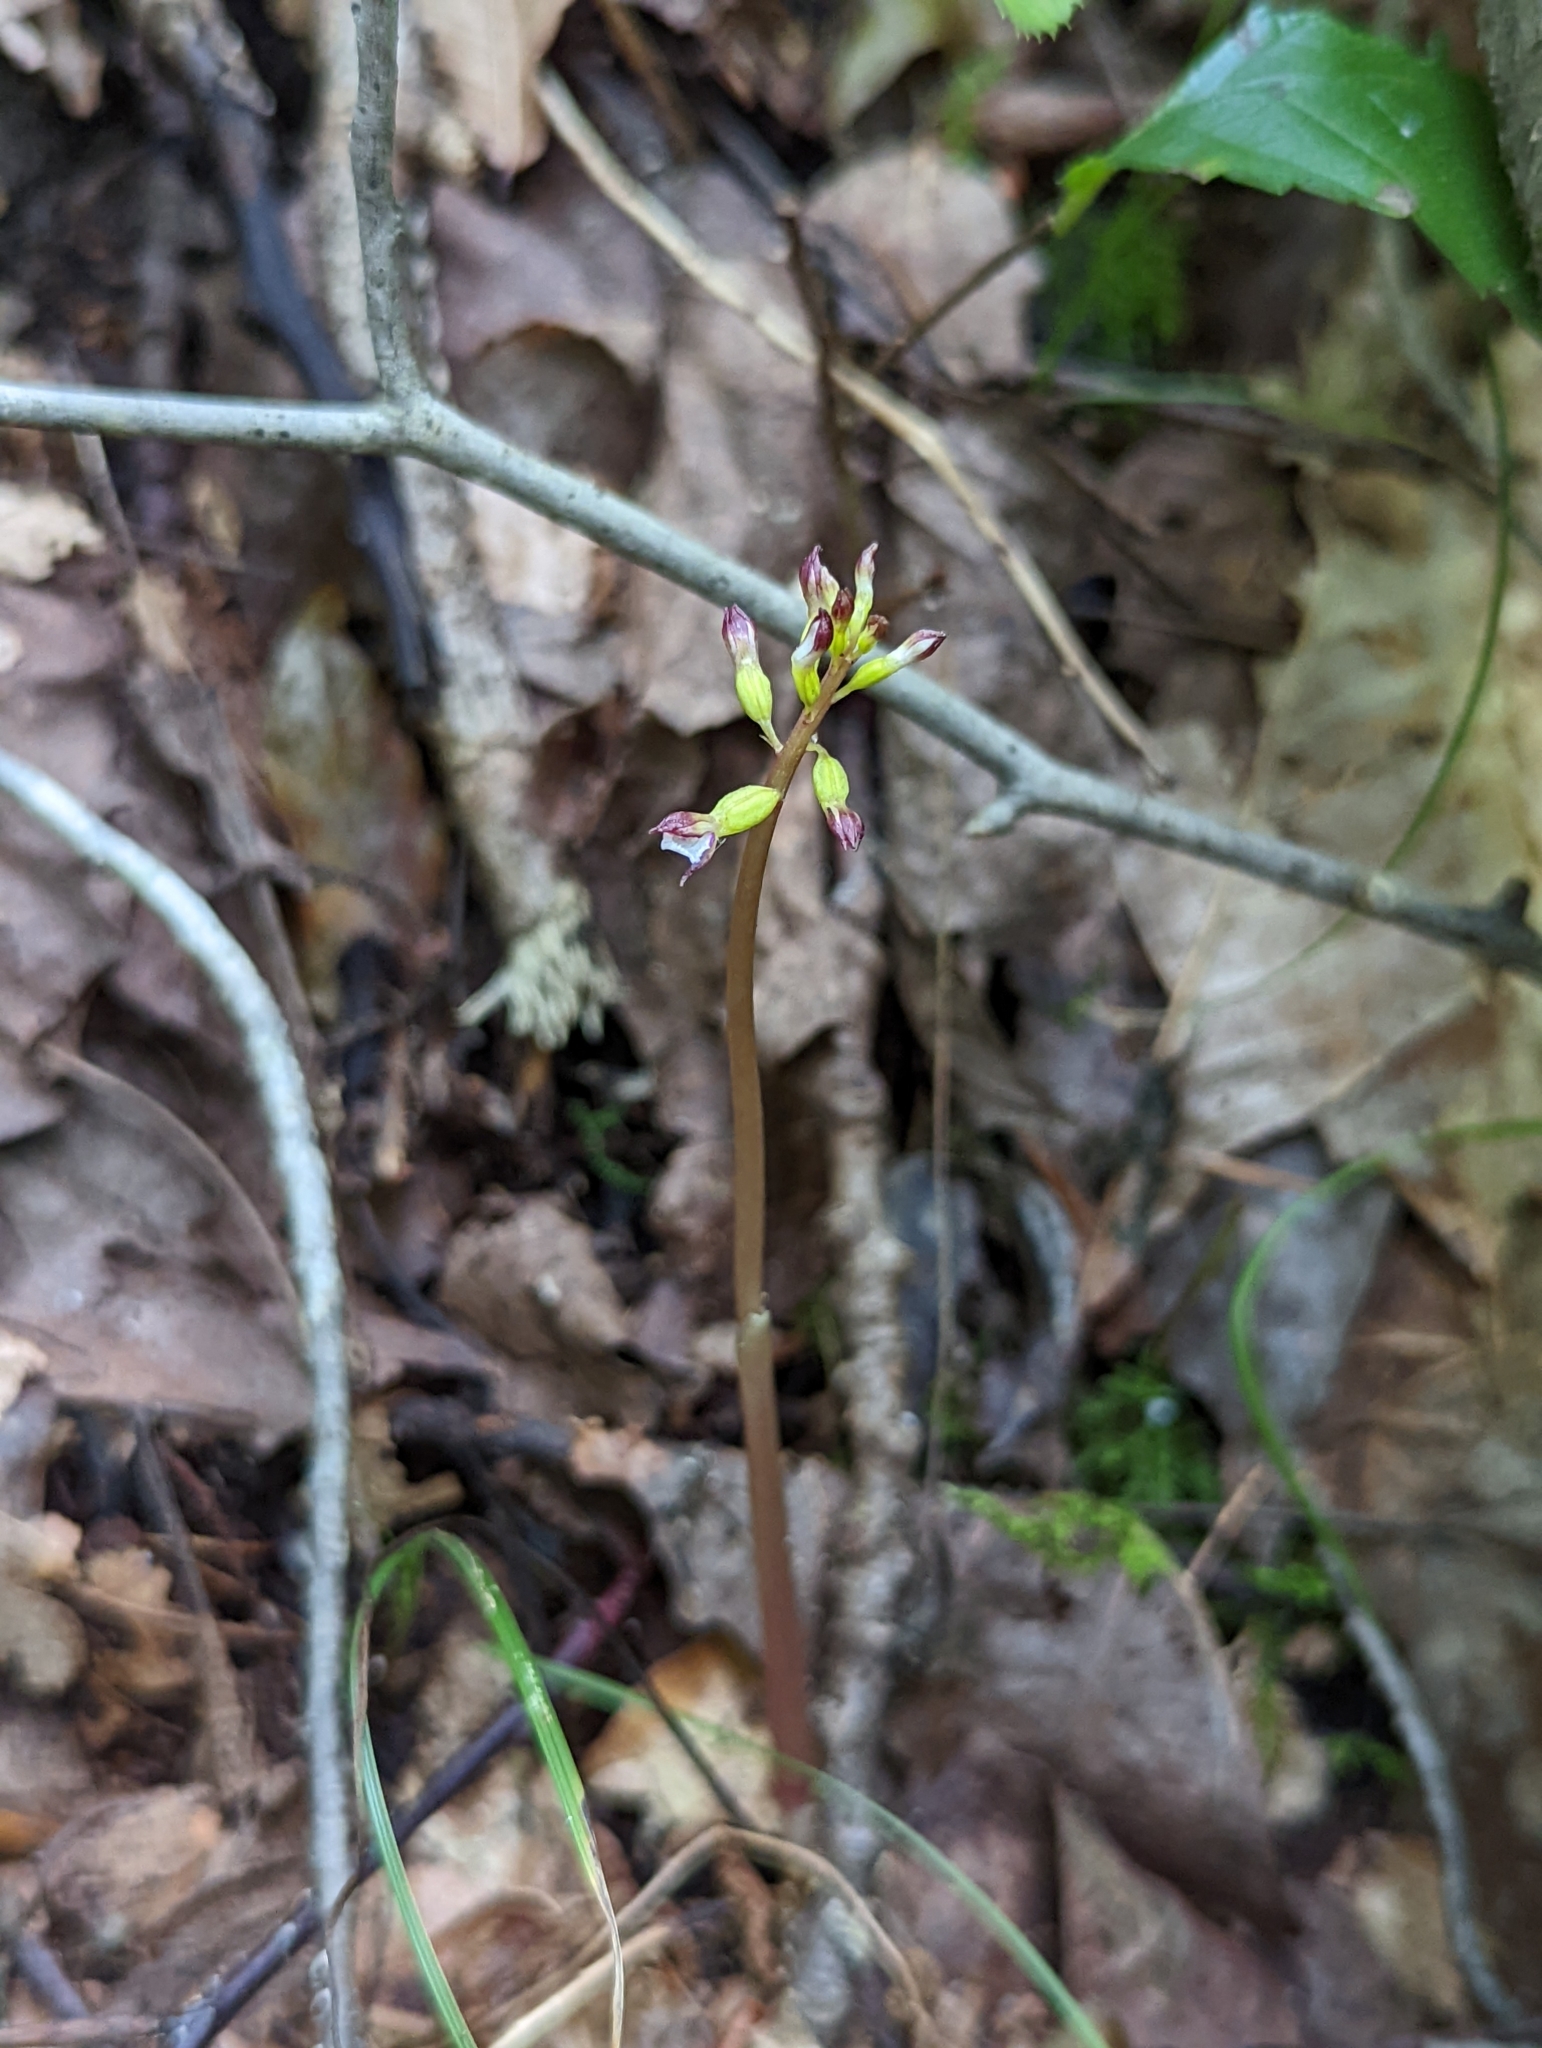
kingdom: Plantae
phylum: Tracheophyta
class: Liliopsida
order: Asparagales
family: Orchidaceae
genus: Corallorhiza
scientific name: Corallorhiza odontorhiza
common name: Autumn coralroot
